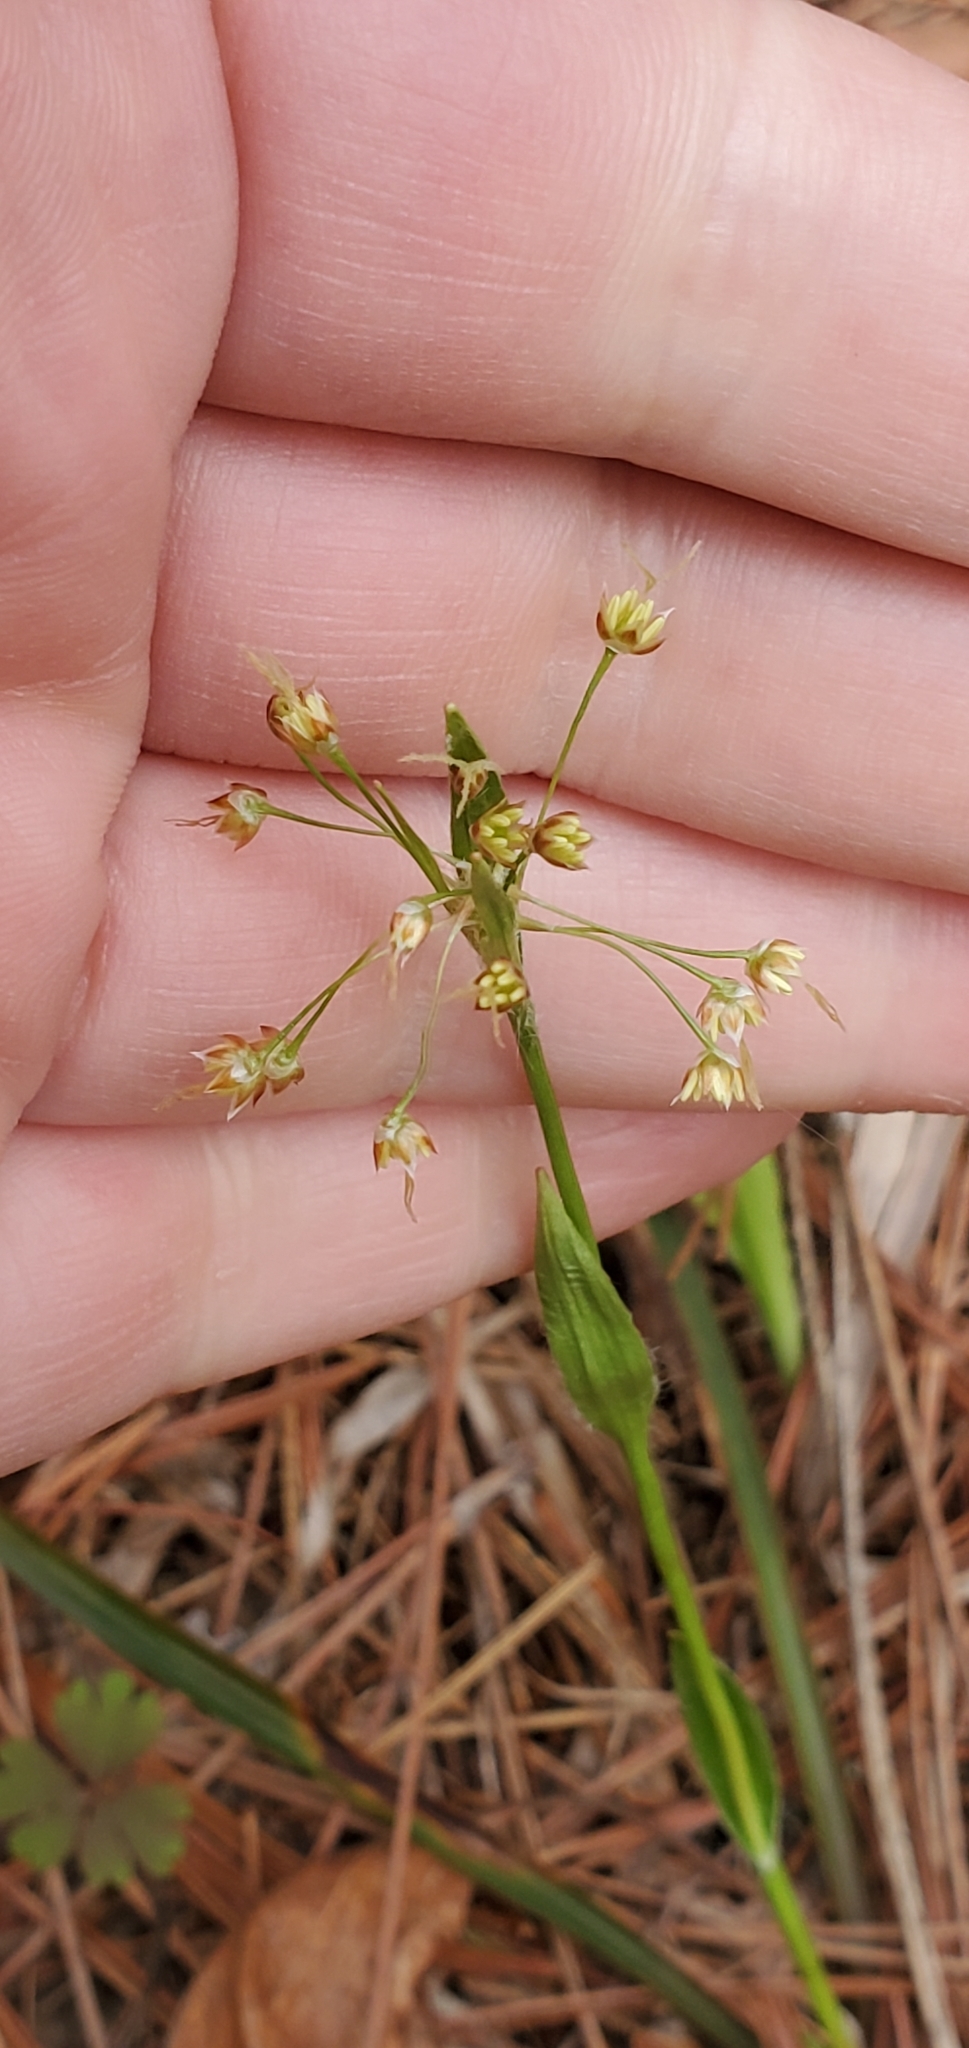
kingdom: Plantae
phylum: Tracheophyta
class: Liliopsida
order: Poales
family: Juncaceae
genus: Luzula
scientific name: Luzula acuminata
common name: Hairy woodrush
